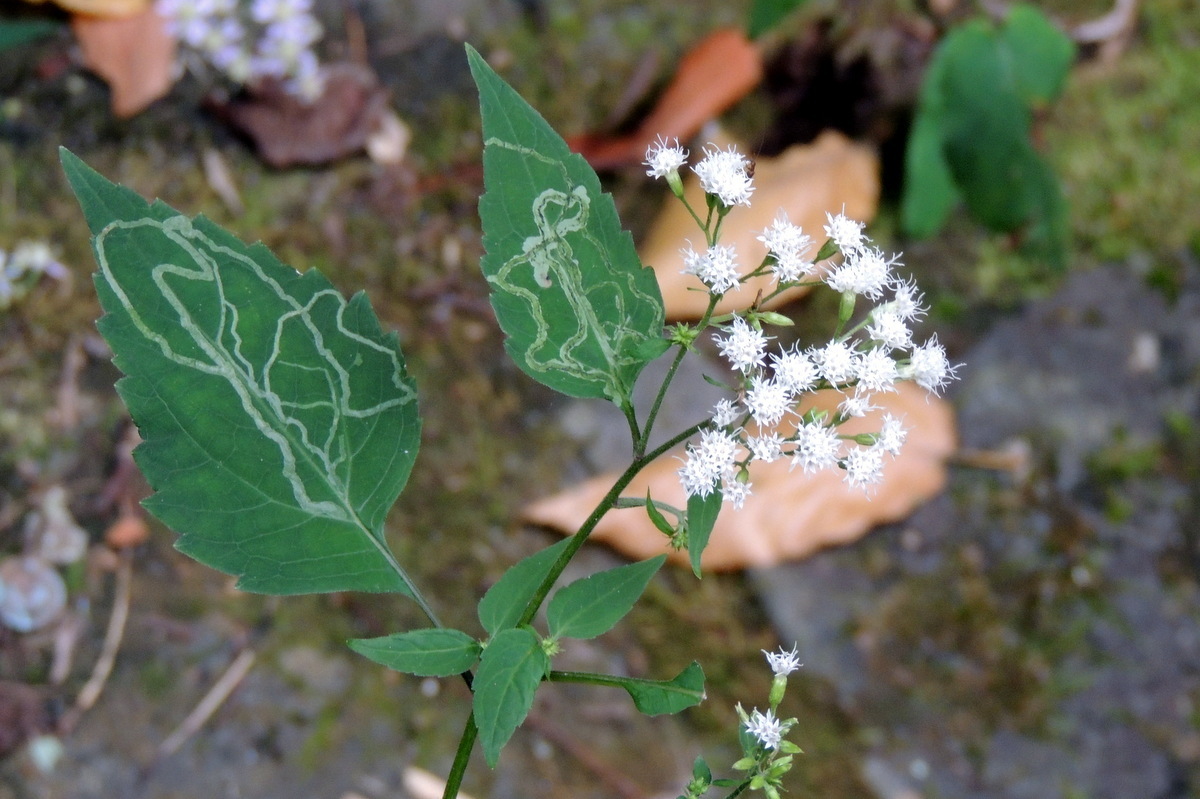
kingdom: Plantae
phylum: Tracheophyta
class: Magnoliopsida
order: Asterales
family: Asteraceae
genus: Ageratina
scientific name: Ageratina altissima
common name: White snakeroot
